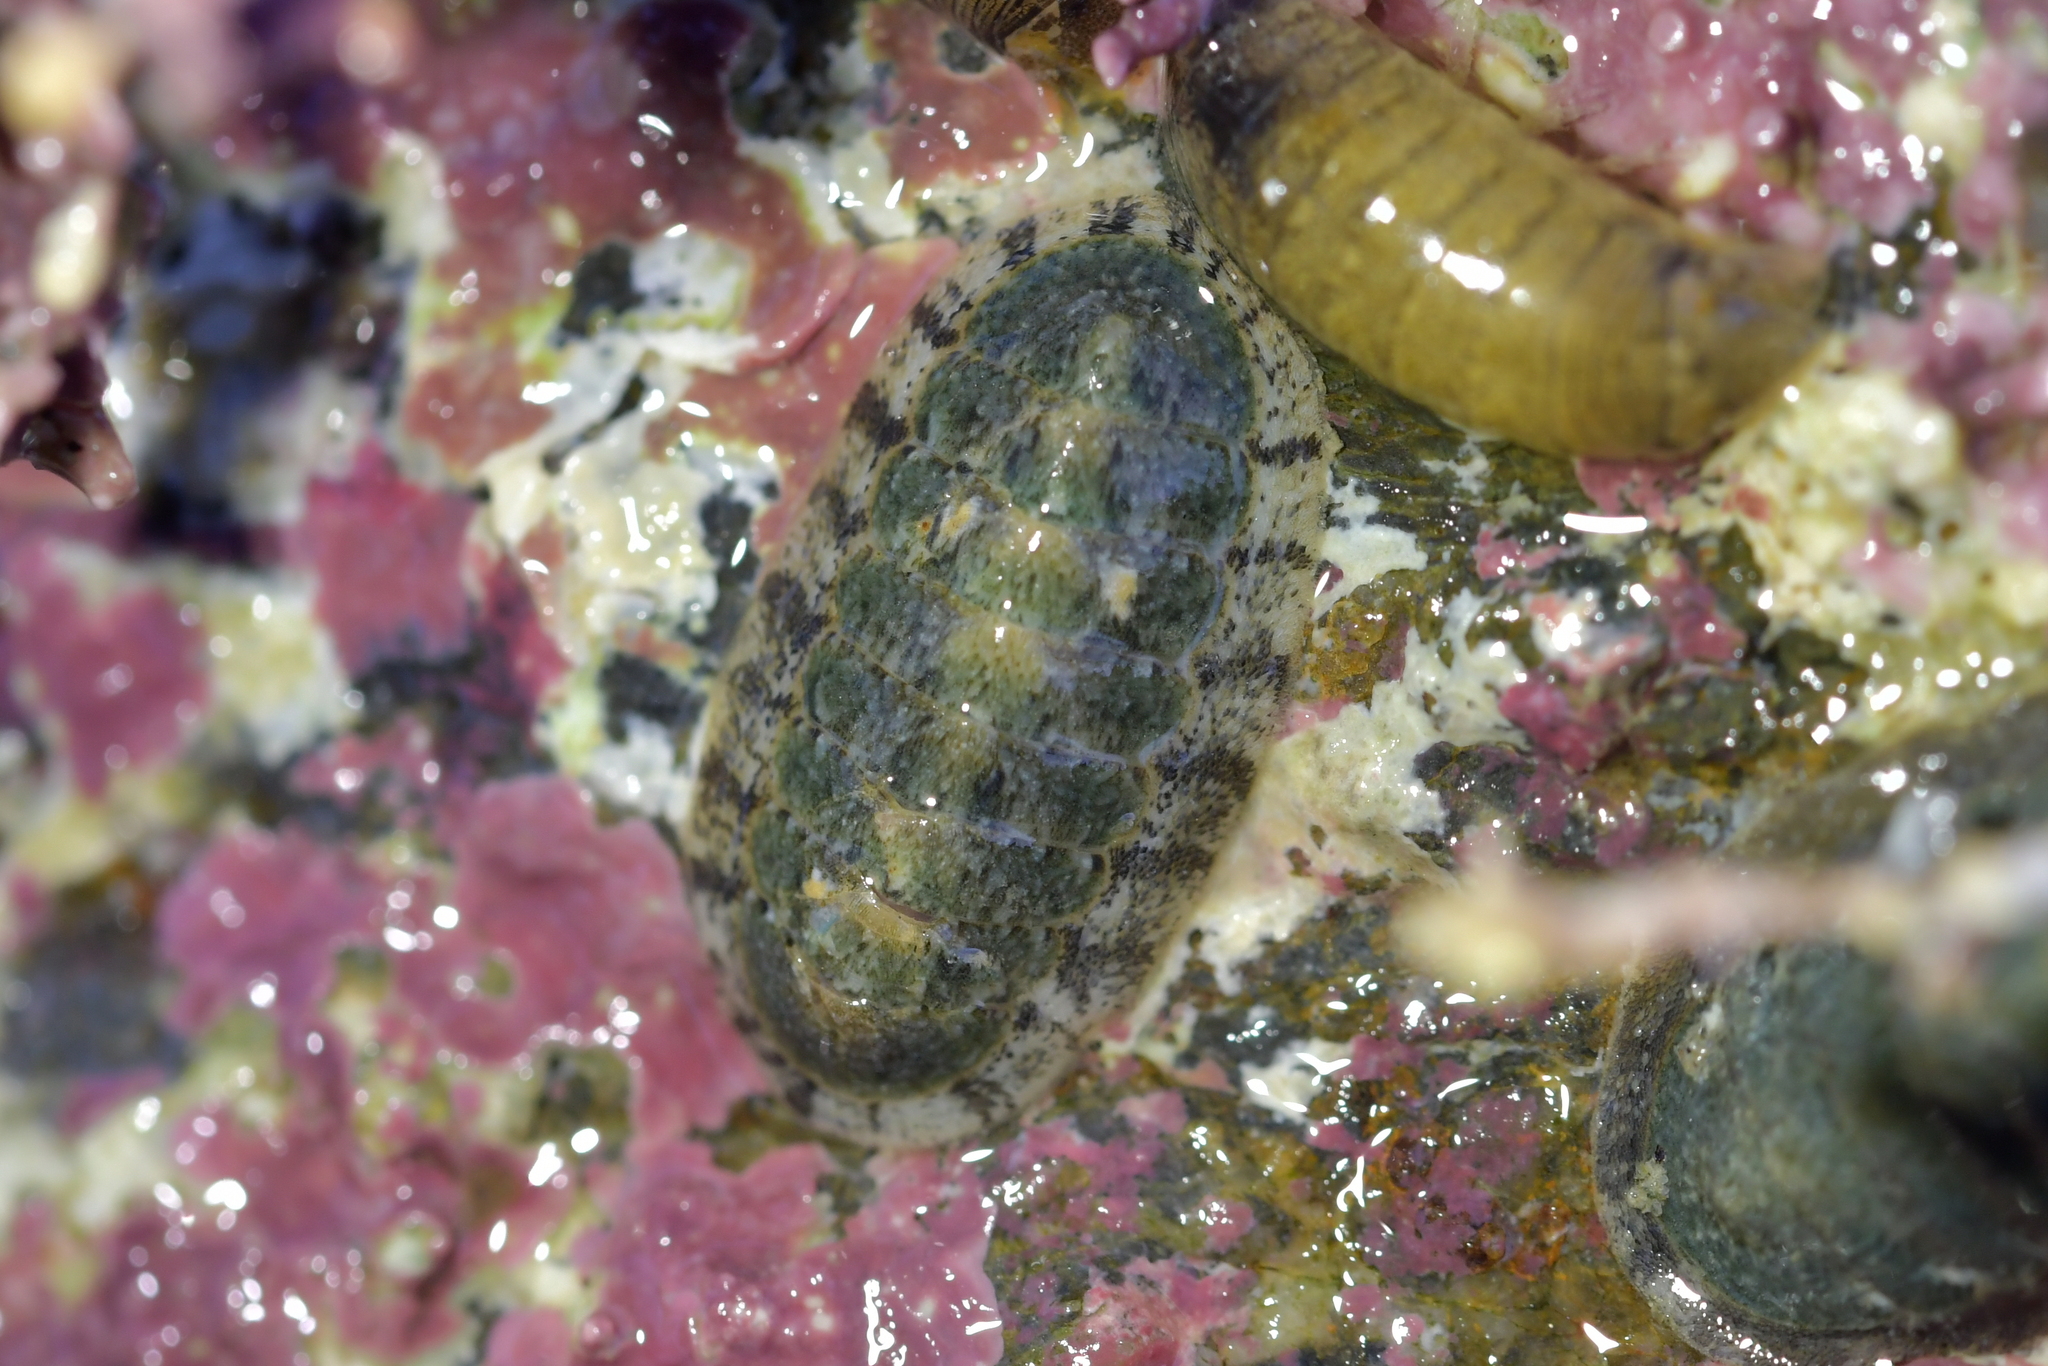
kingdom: Animalia
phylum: Mollusca
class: Polyplacophora
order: Chitonida
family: Ischnochitonidae
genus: Ischnochiton
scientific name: Ischnochiton maorianus
